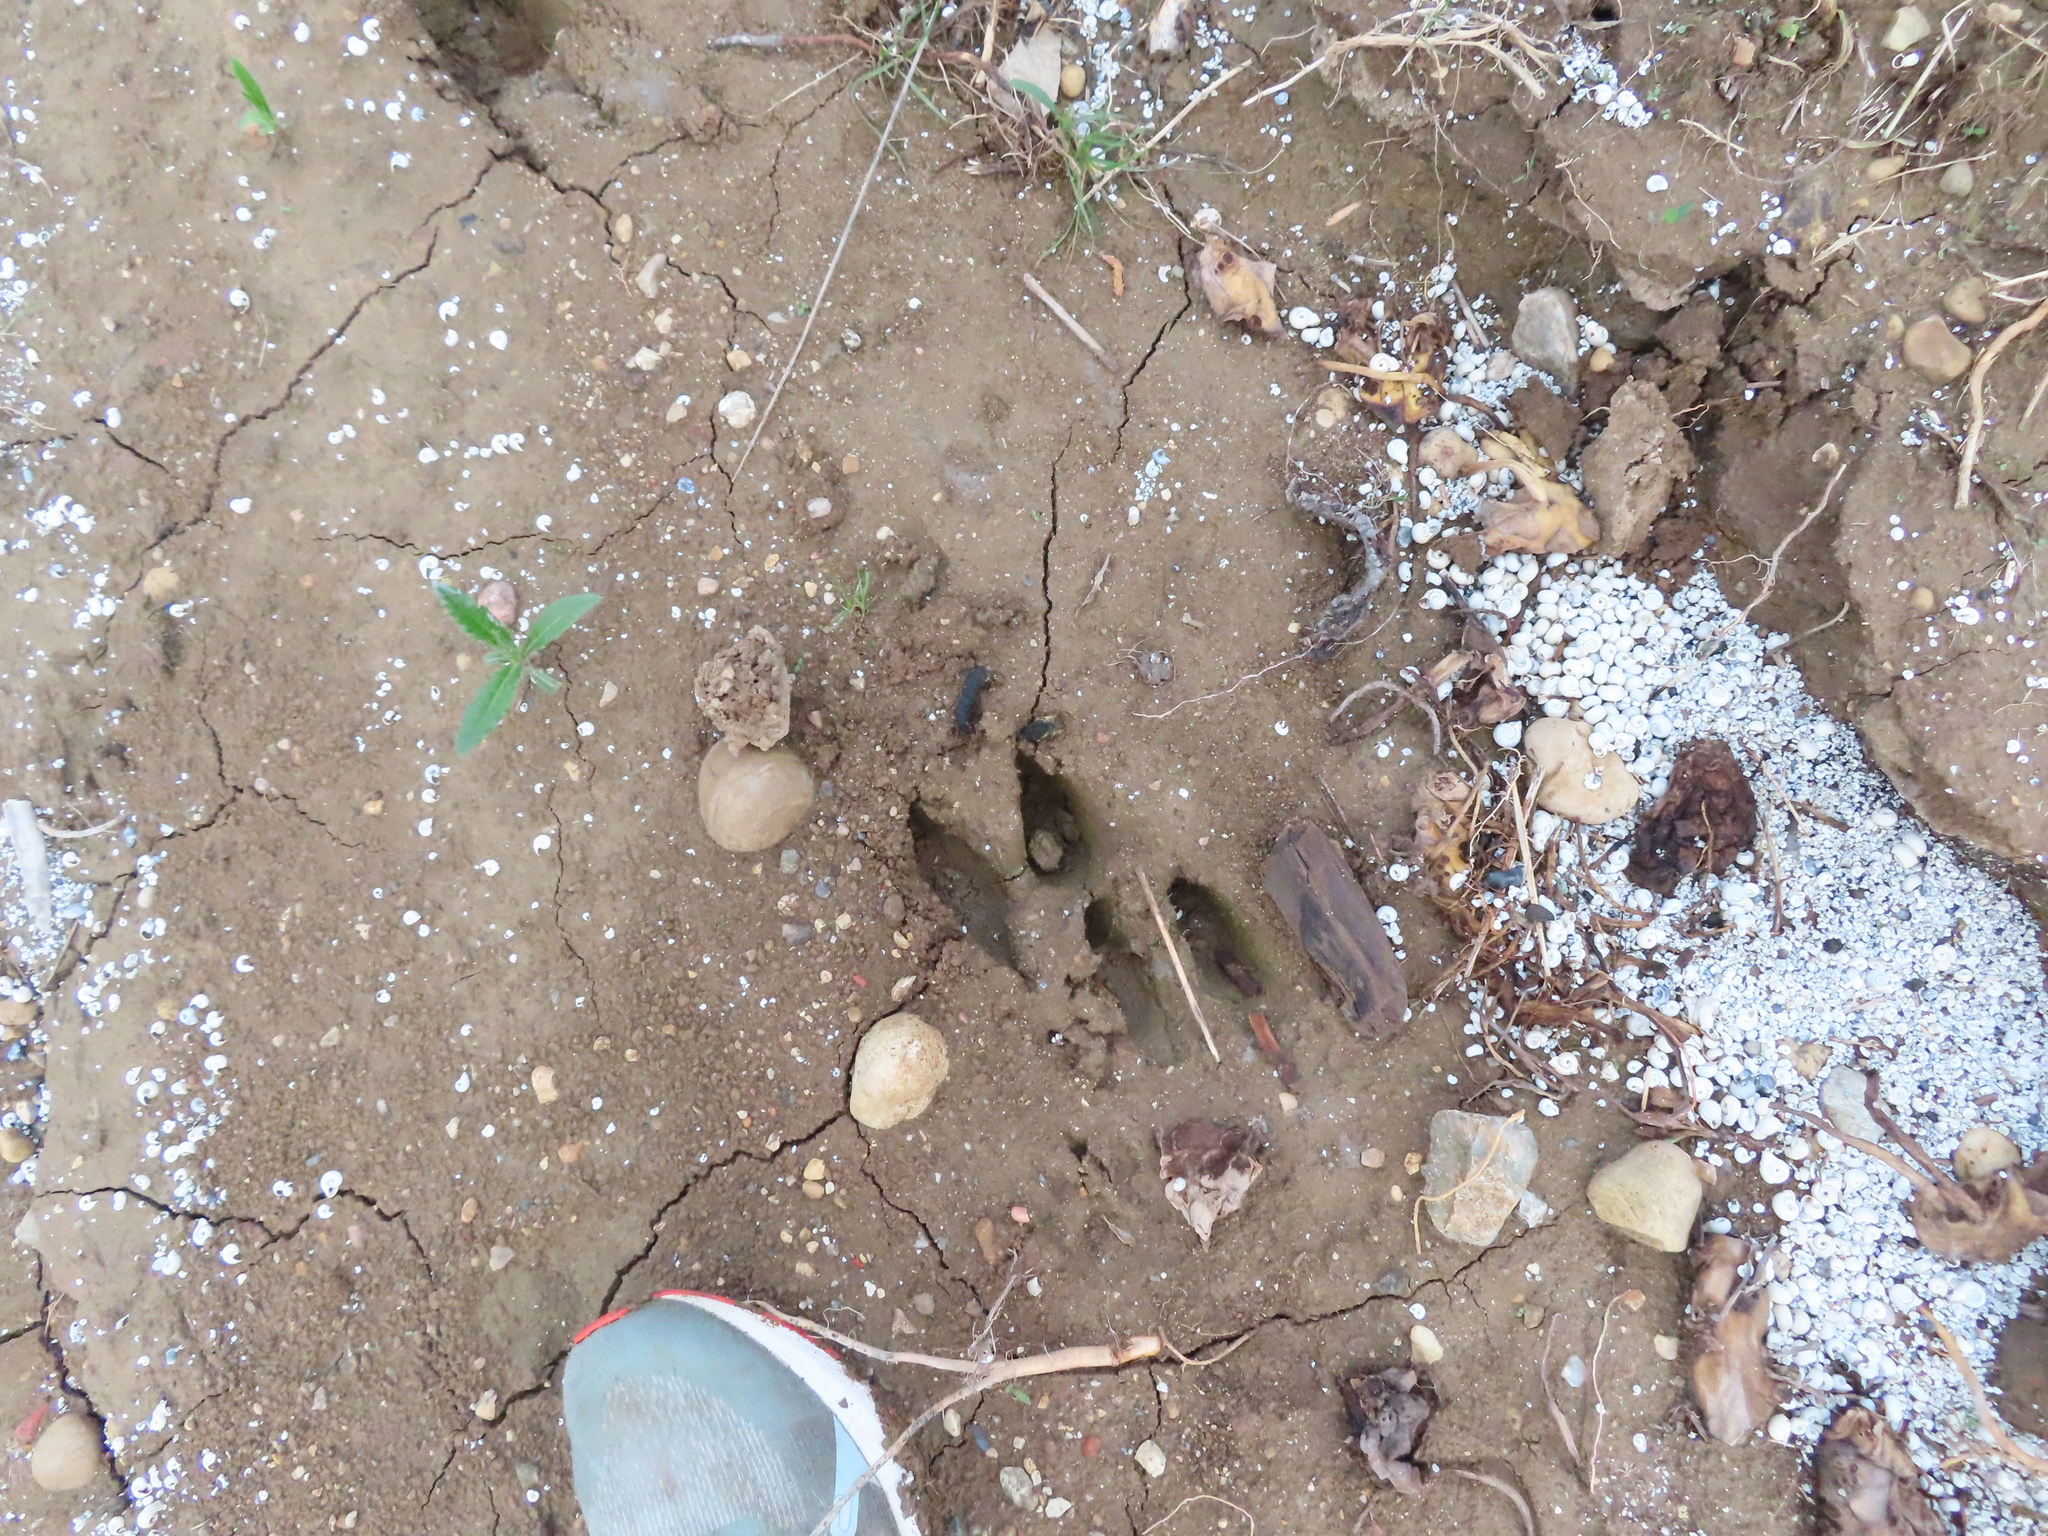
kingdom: Animalia
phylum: Chordata
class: Mammalia
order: Artiodactyla
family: Cervidae
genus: Odocoileus
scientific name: Odocoileus virginianus
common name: White-tailed deer
